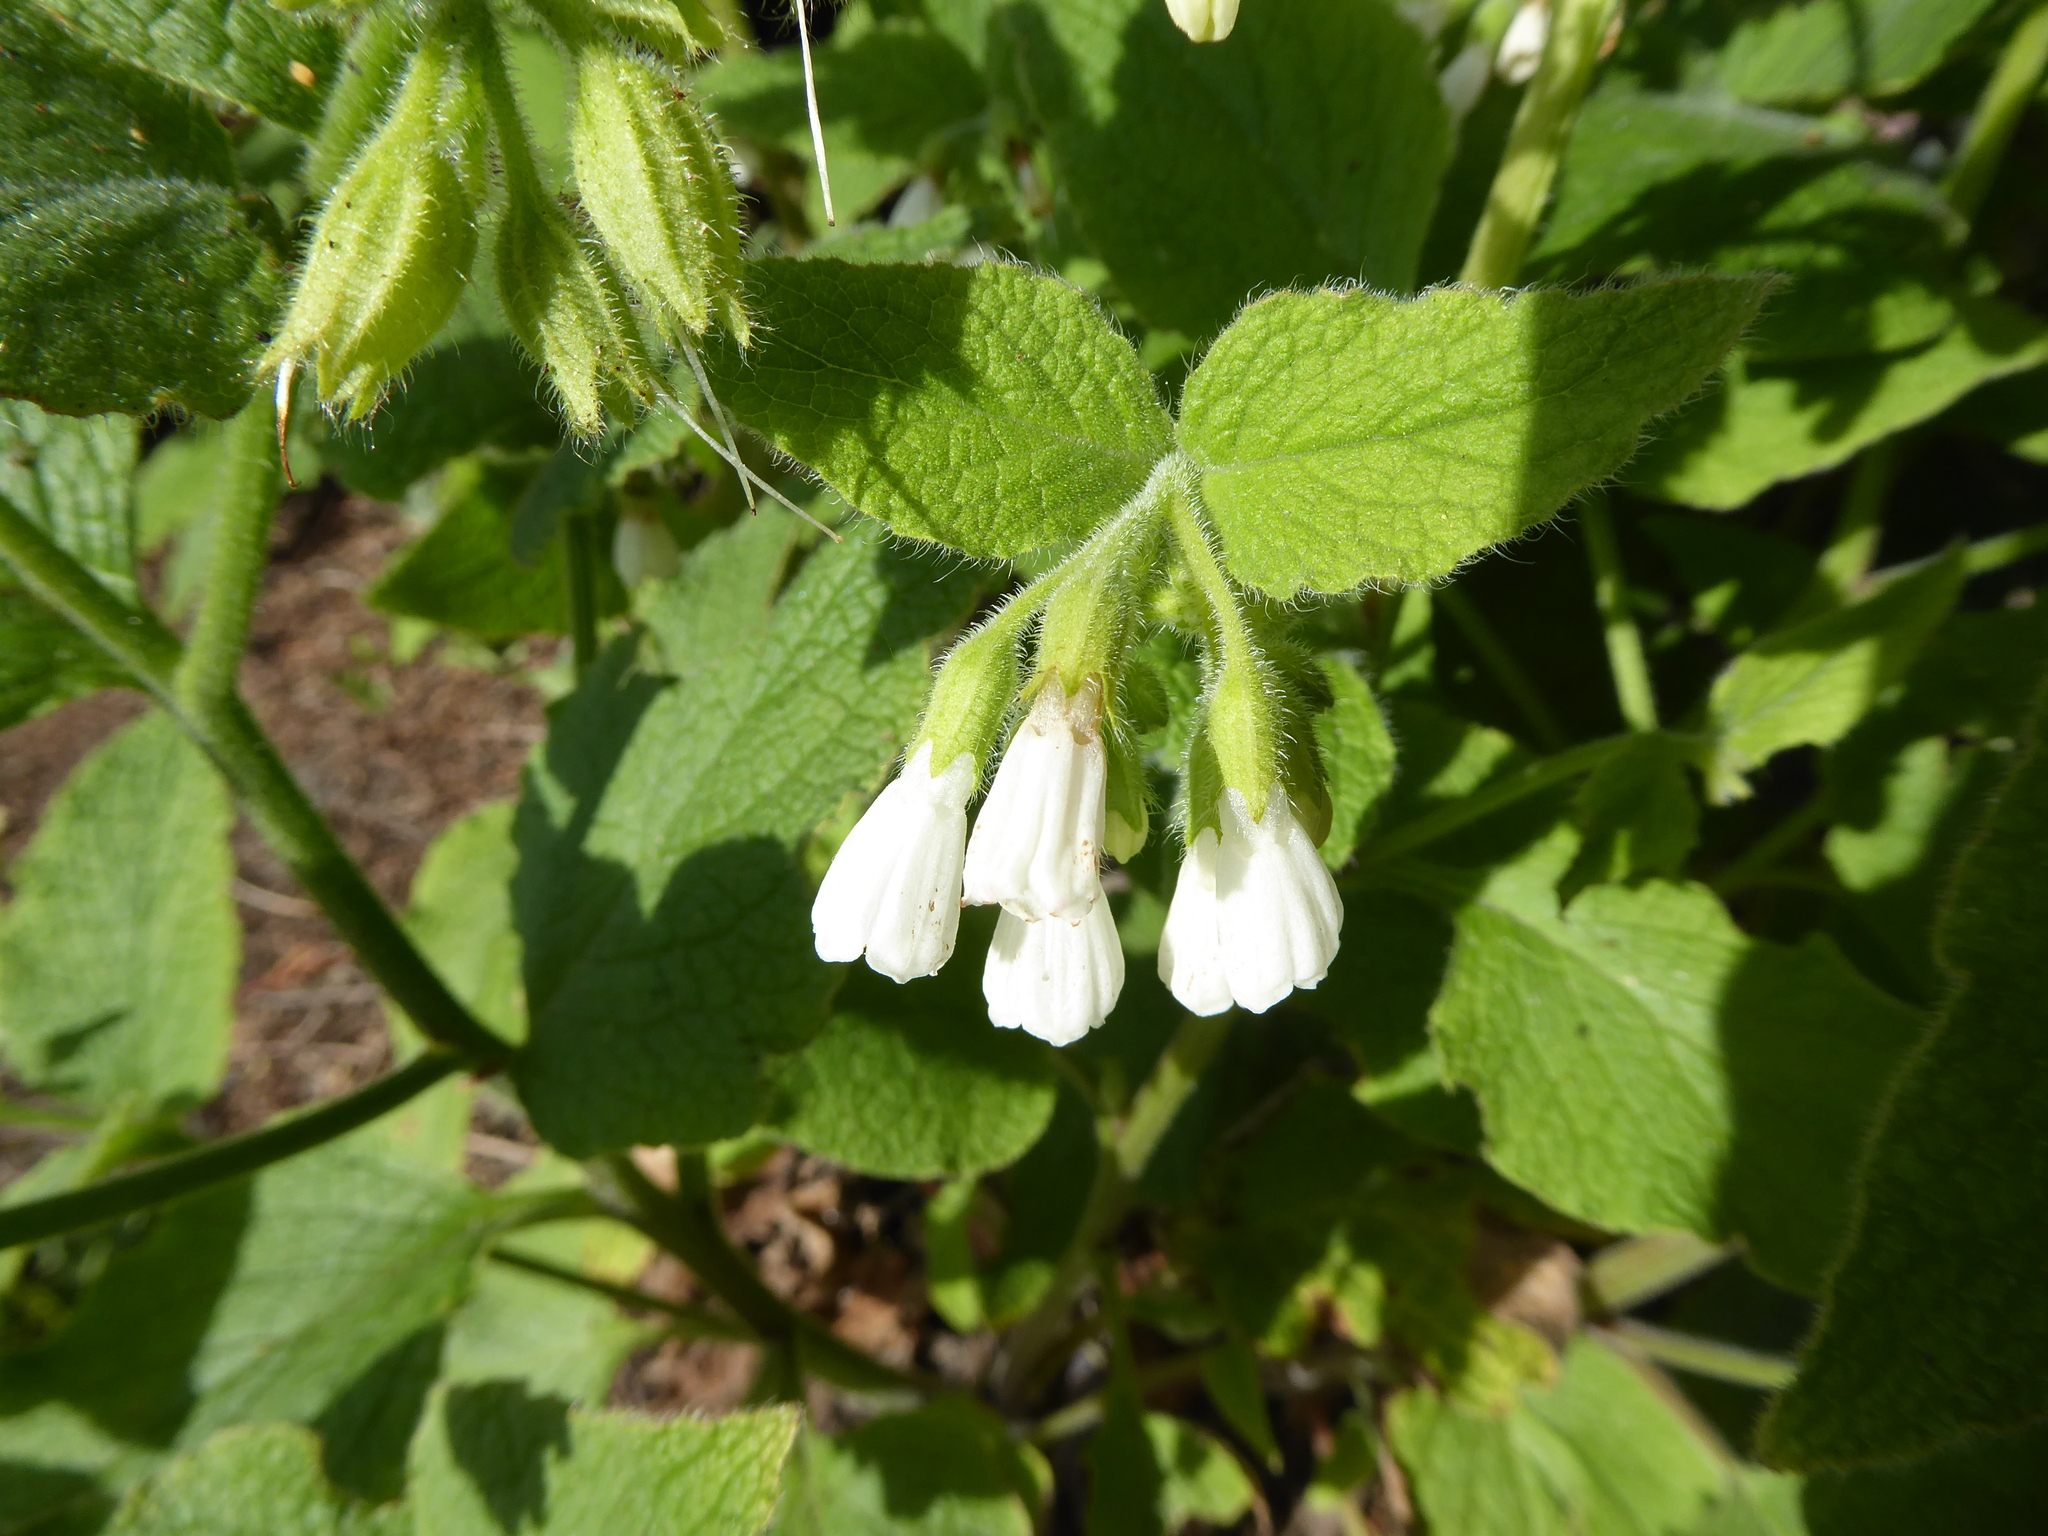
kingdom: Plantae
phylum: Tracheophyta
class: Magnoliopsida
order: Boraginales
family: Boraginaceae
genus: Symphytum
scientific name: Symphytum orientale
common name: White comfrey
